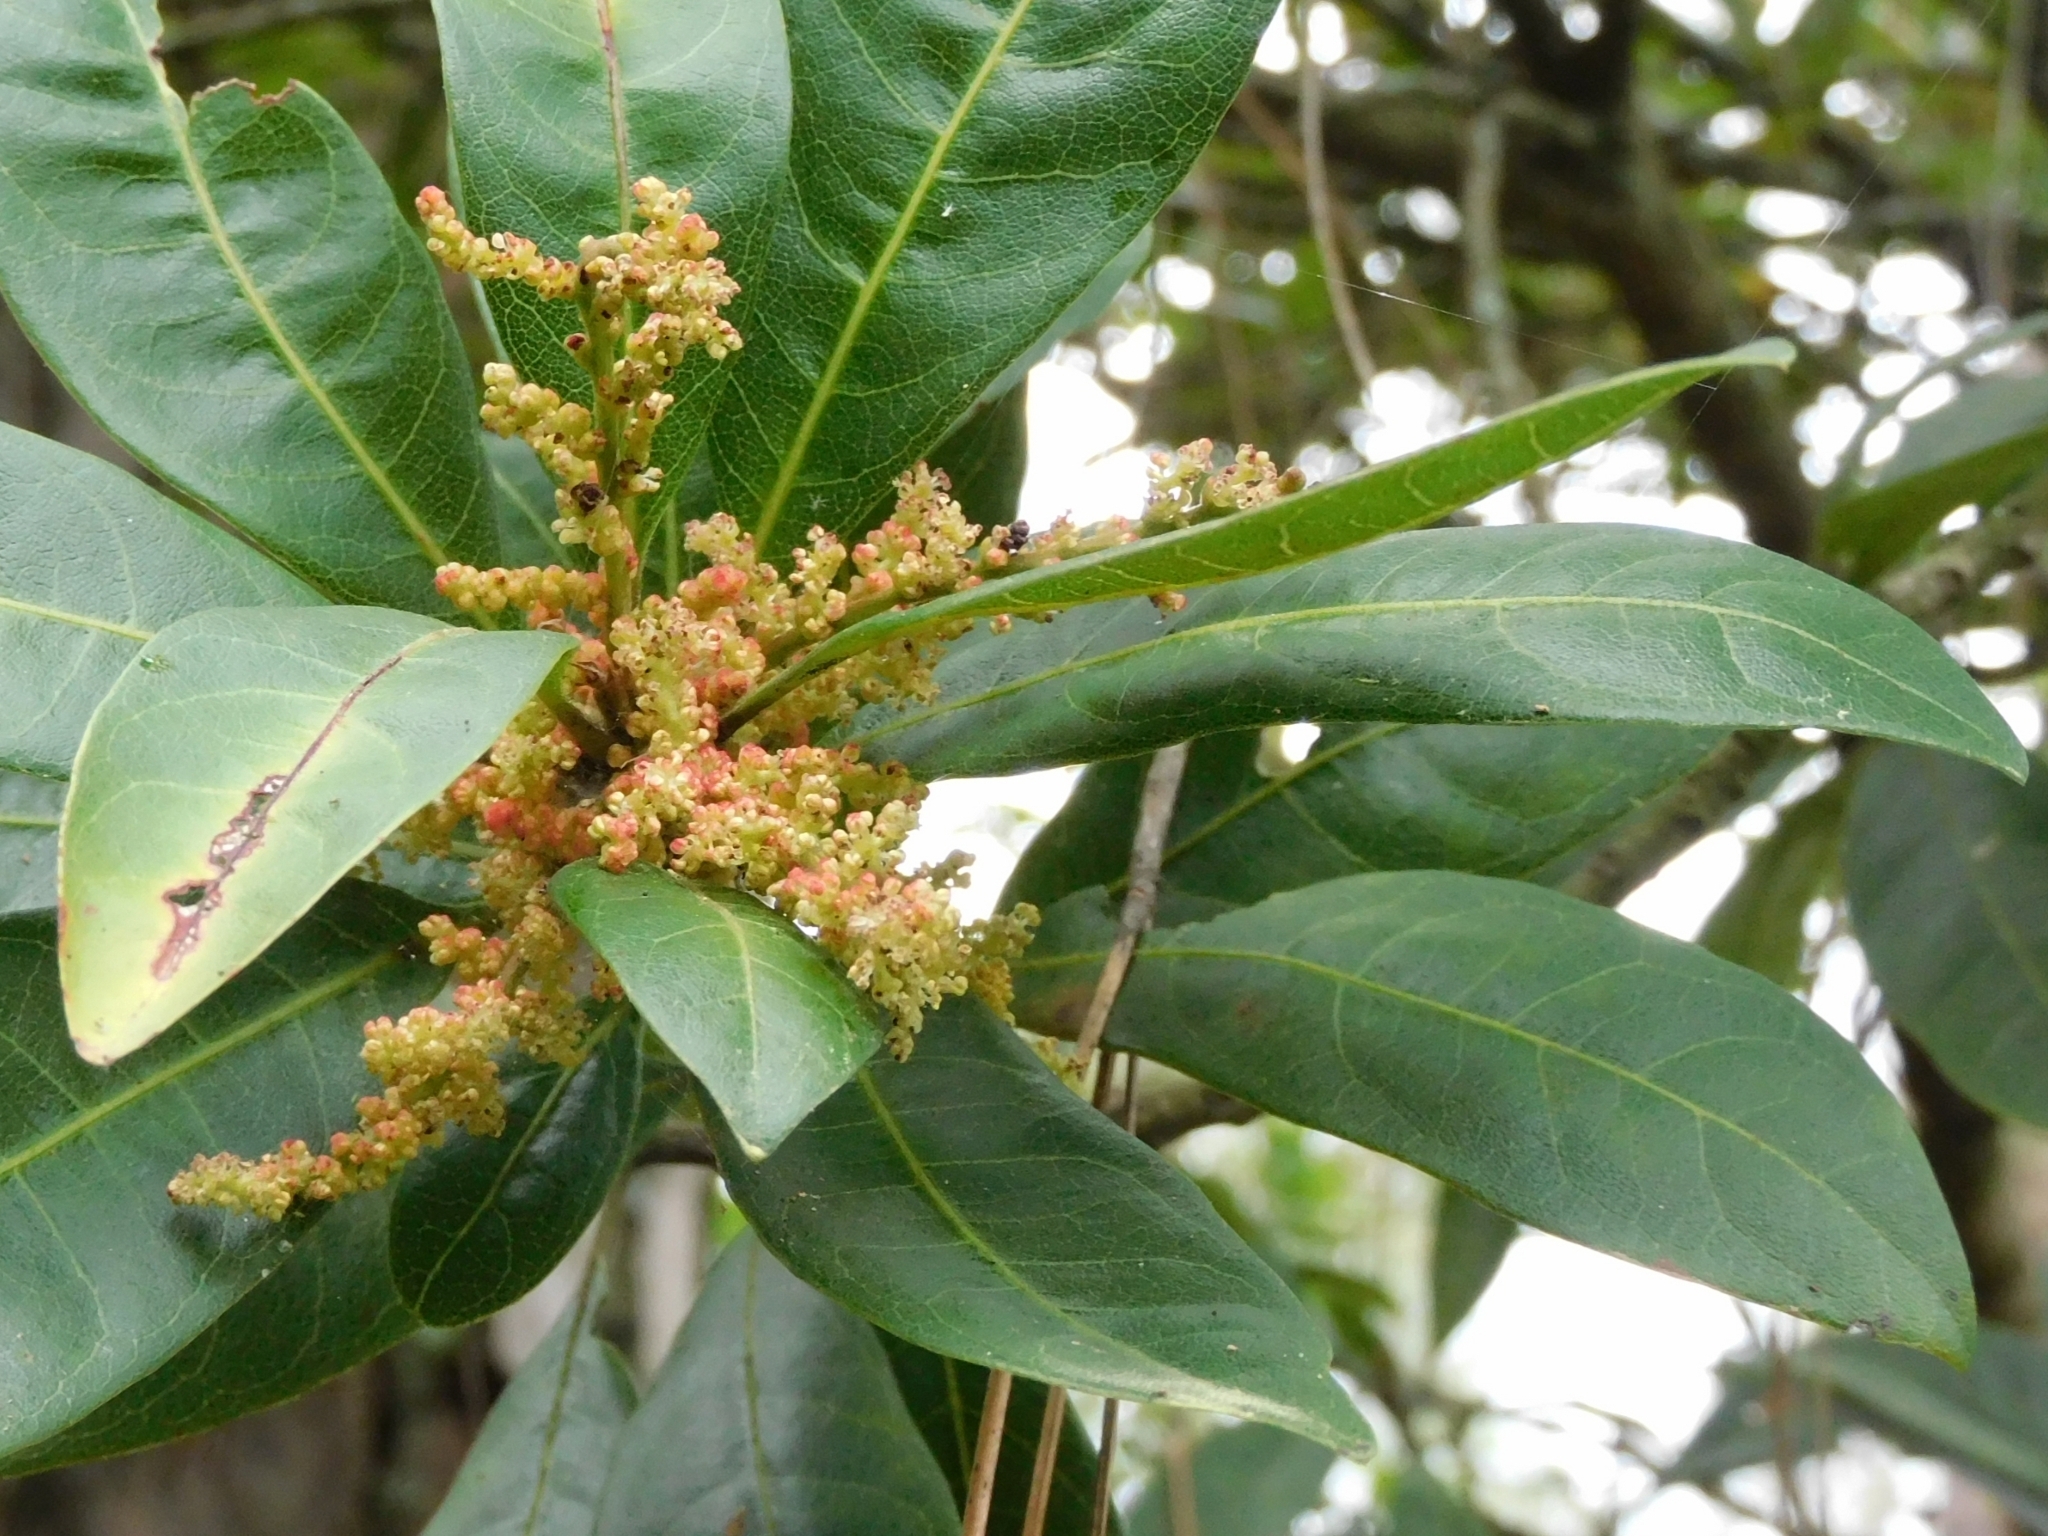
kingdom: Plantae
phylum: Tracheophyta
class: Magnoliopsida
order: Fagales
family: Myricaceae
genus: Morella
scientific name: Morella esculenta
